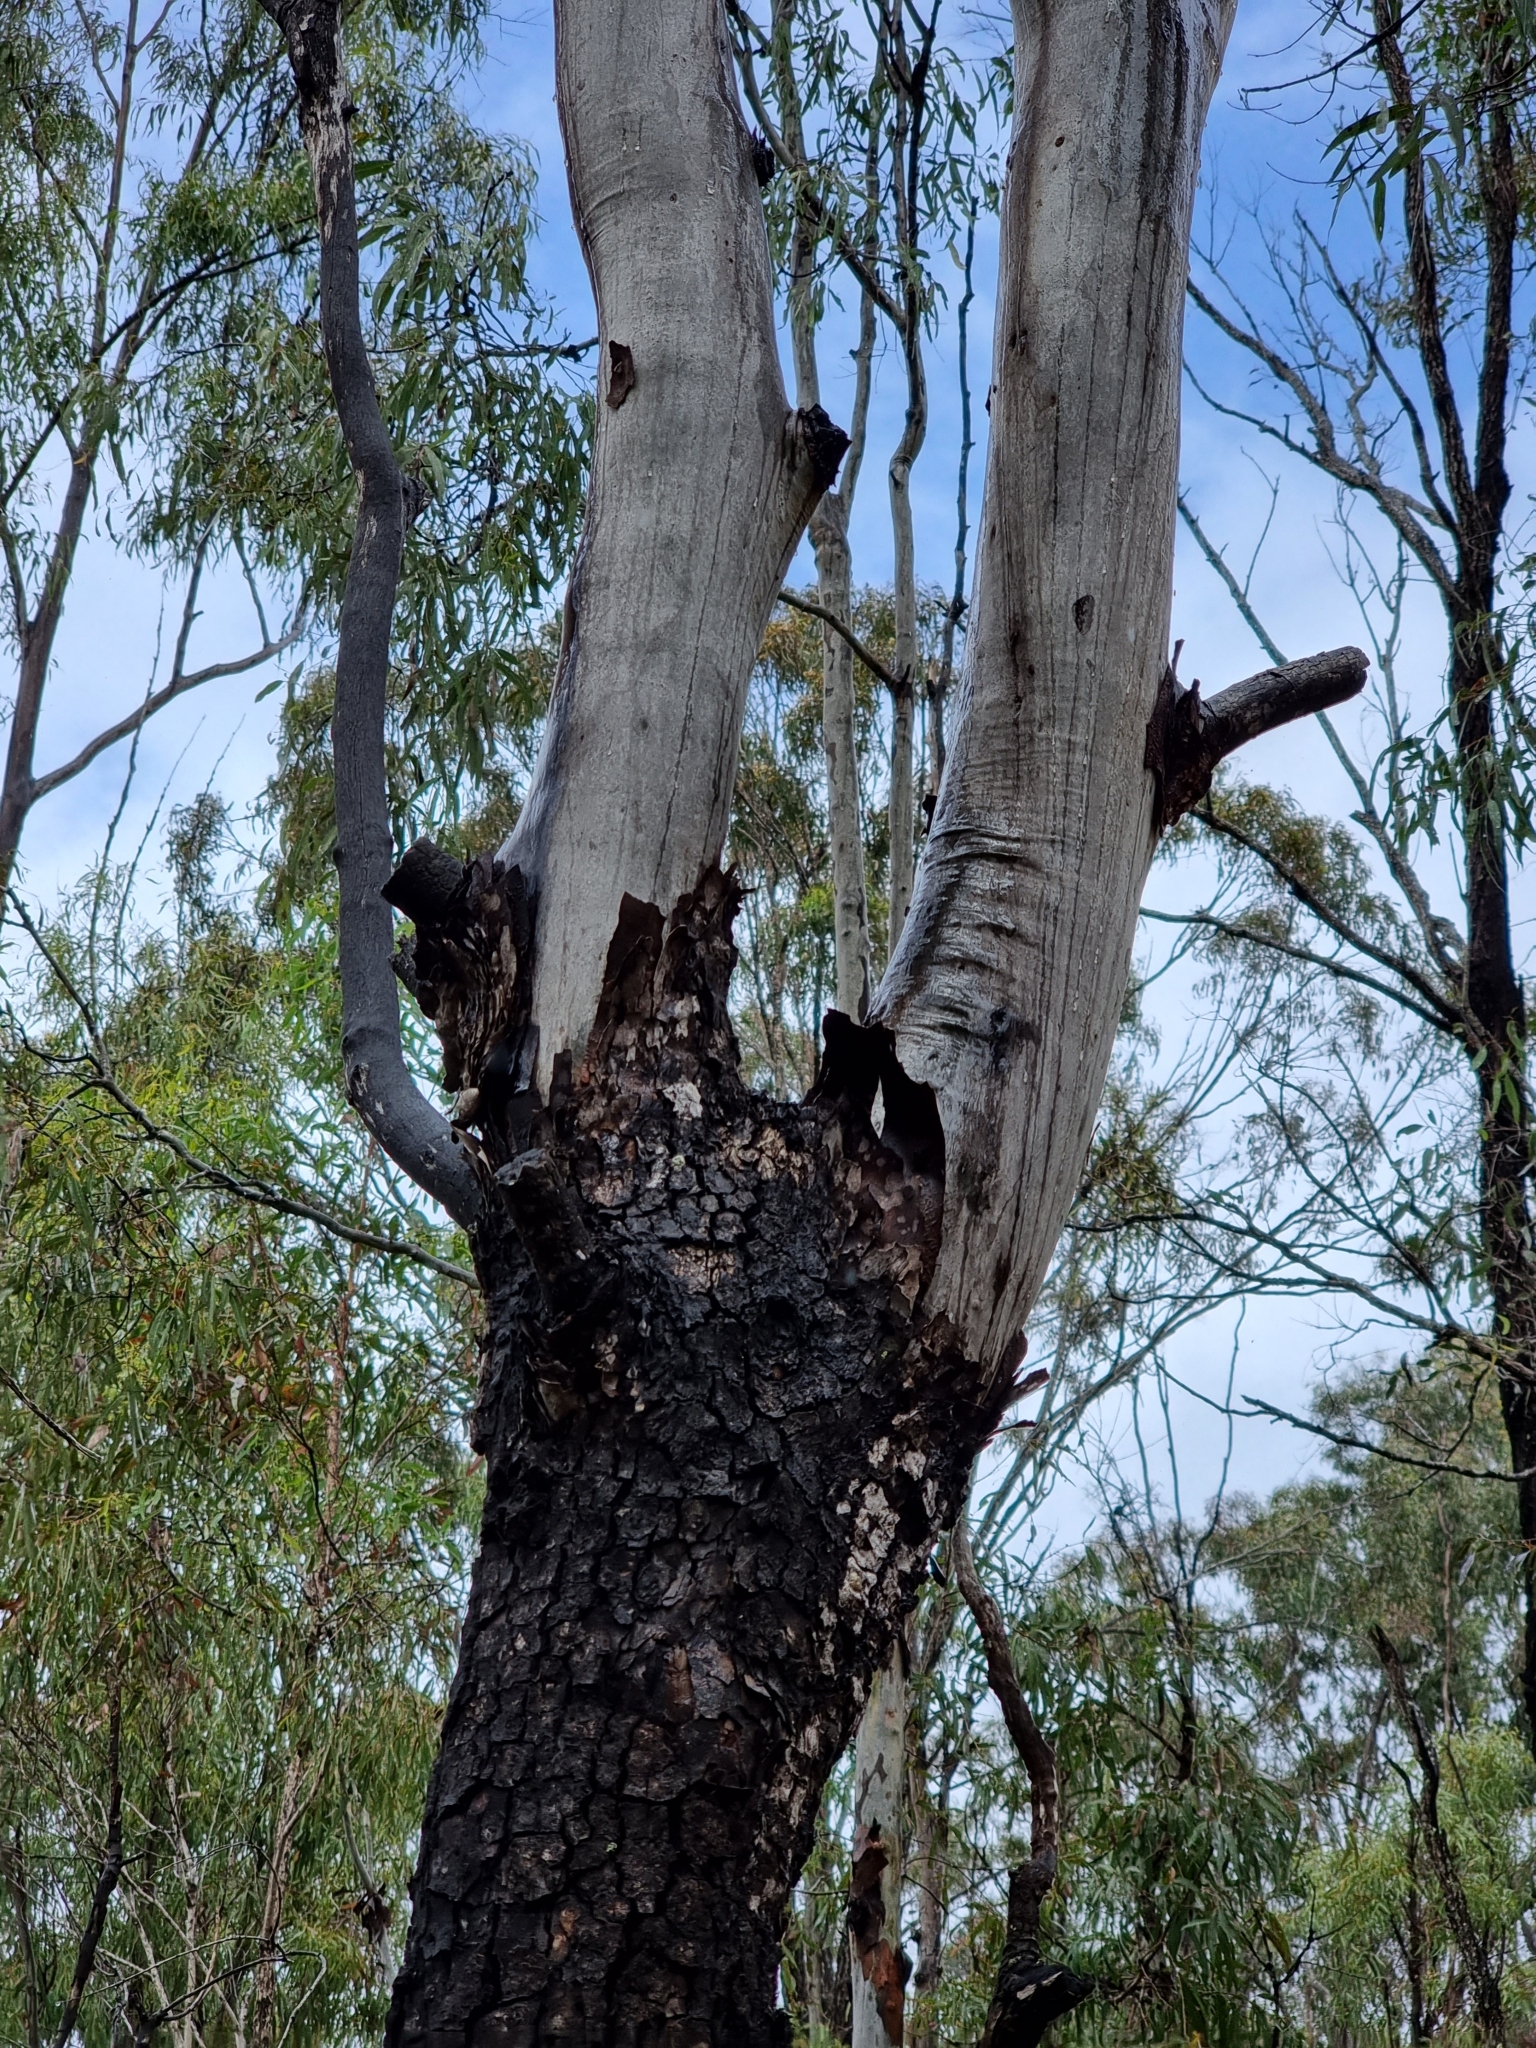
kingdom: Plantae
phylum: Tracheophyta
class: Magnoliopsida
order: Myrtales
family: Myrtaceae
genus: Corymbia
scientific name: Corymbia tessellaris
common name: Carbeen
